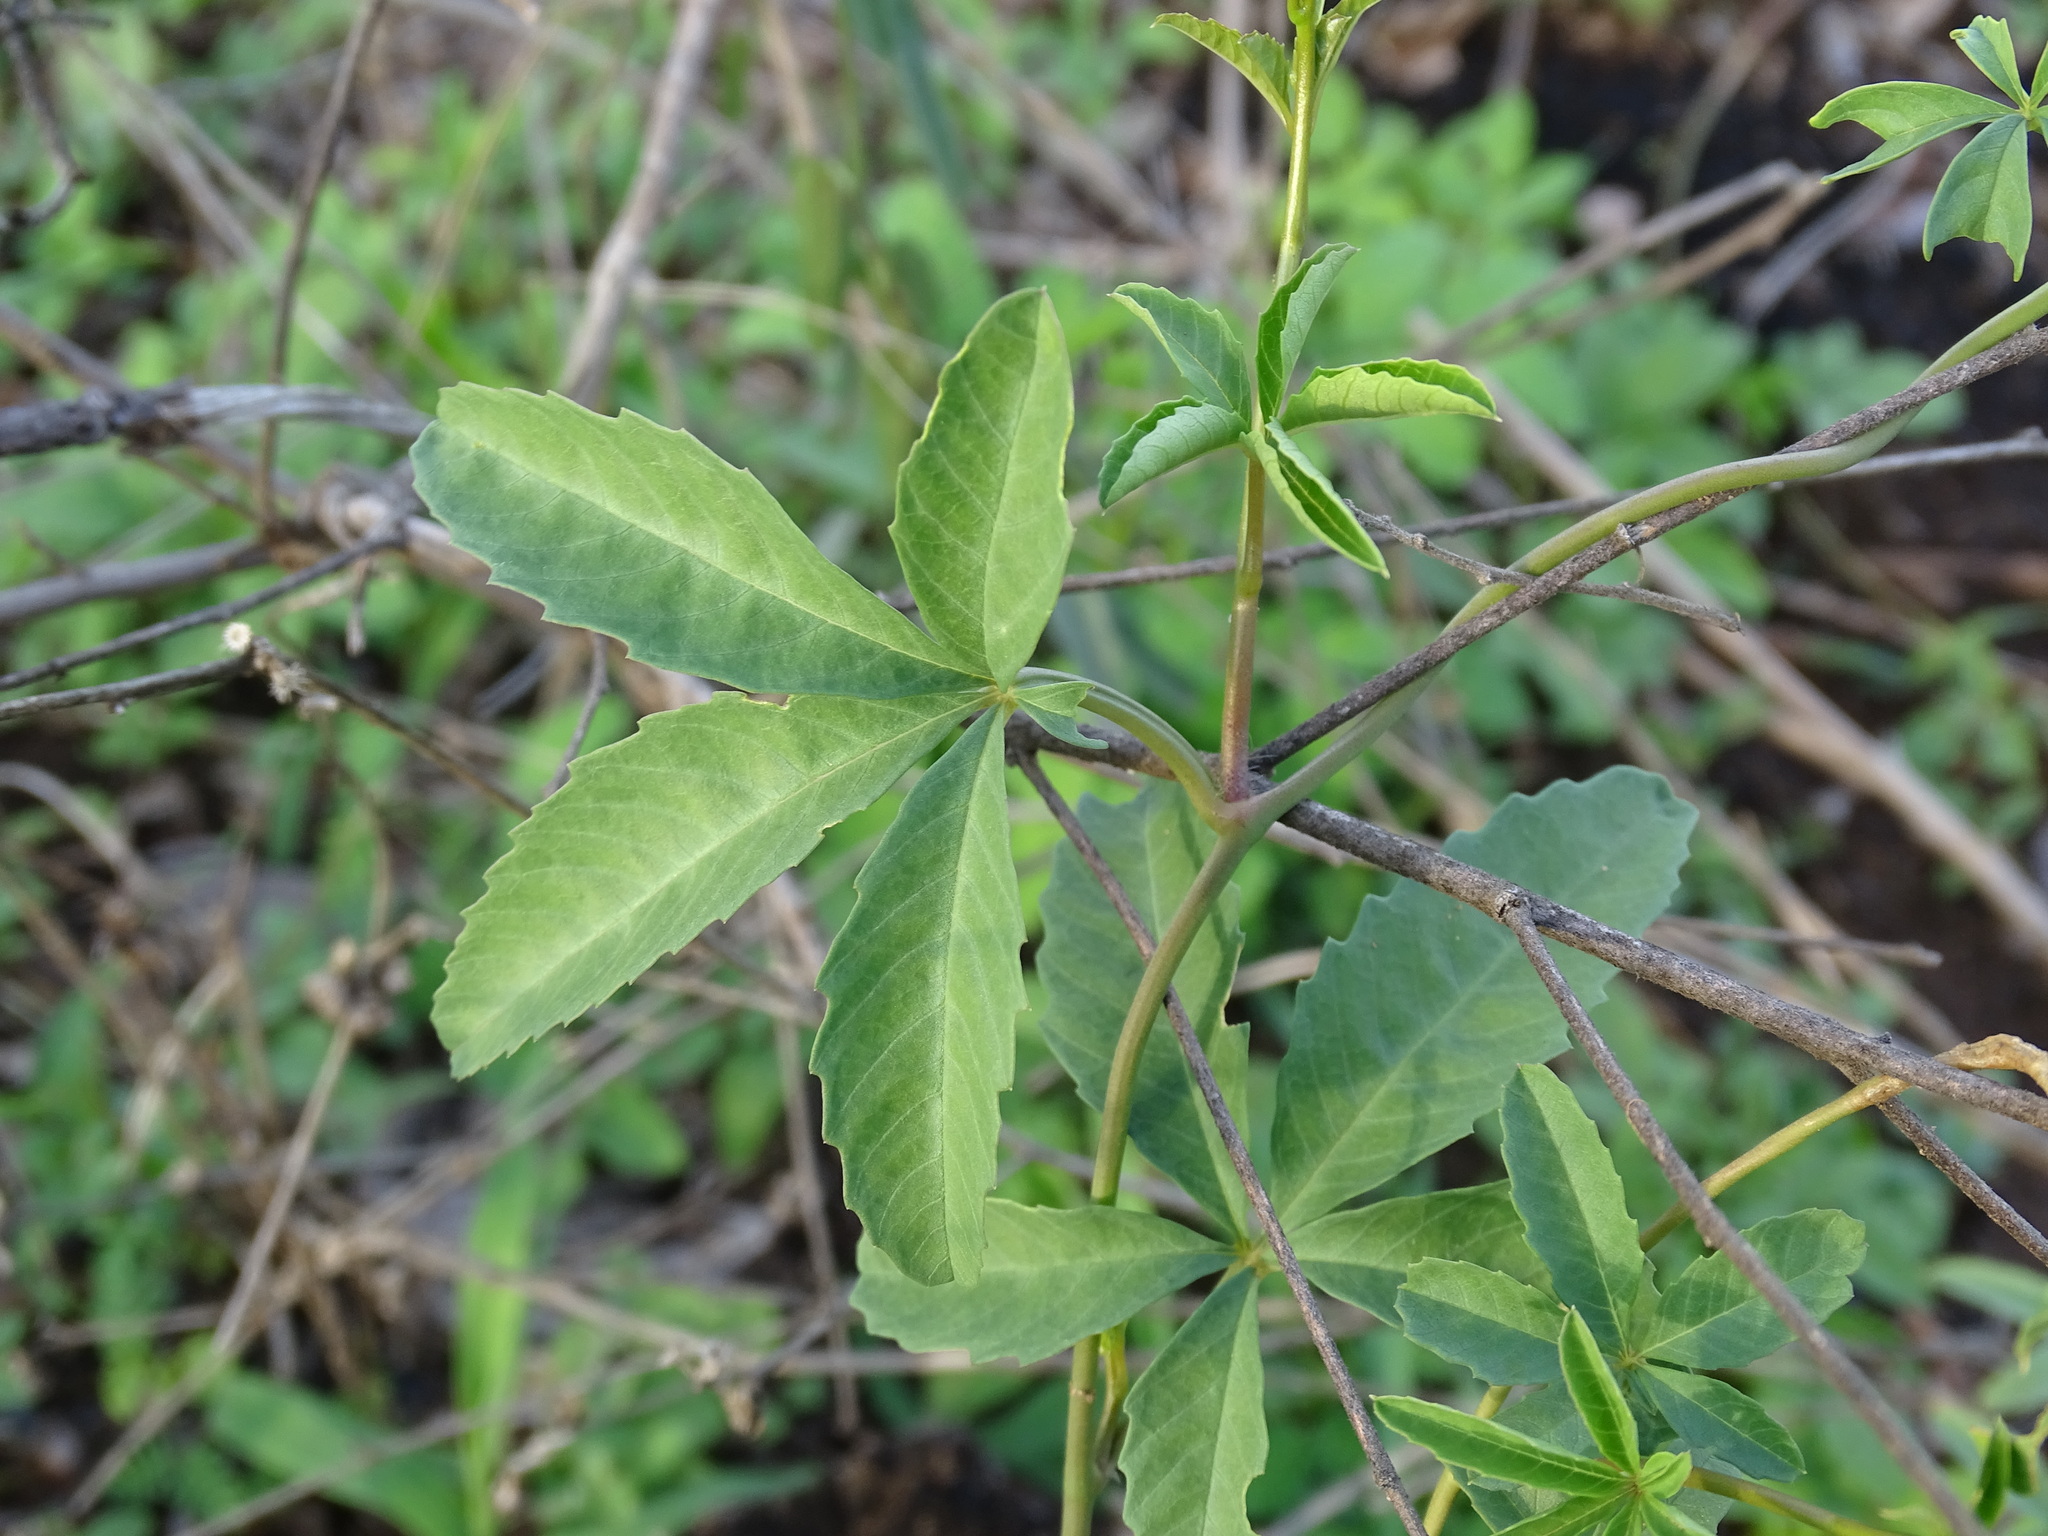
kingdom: Plantae
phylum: Tracheophyta
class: Magnoliopsida
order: Solanales
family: Convolvulaceae
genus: Distimake
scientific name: Distimake quinquefolius
